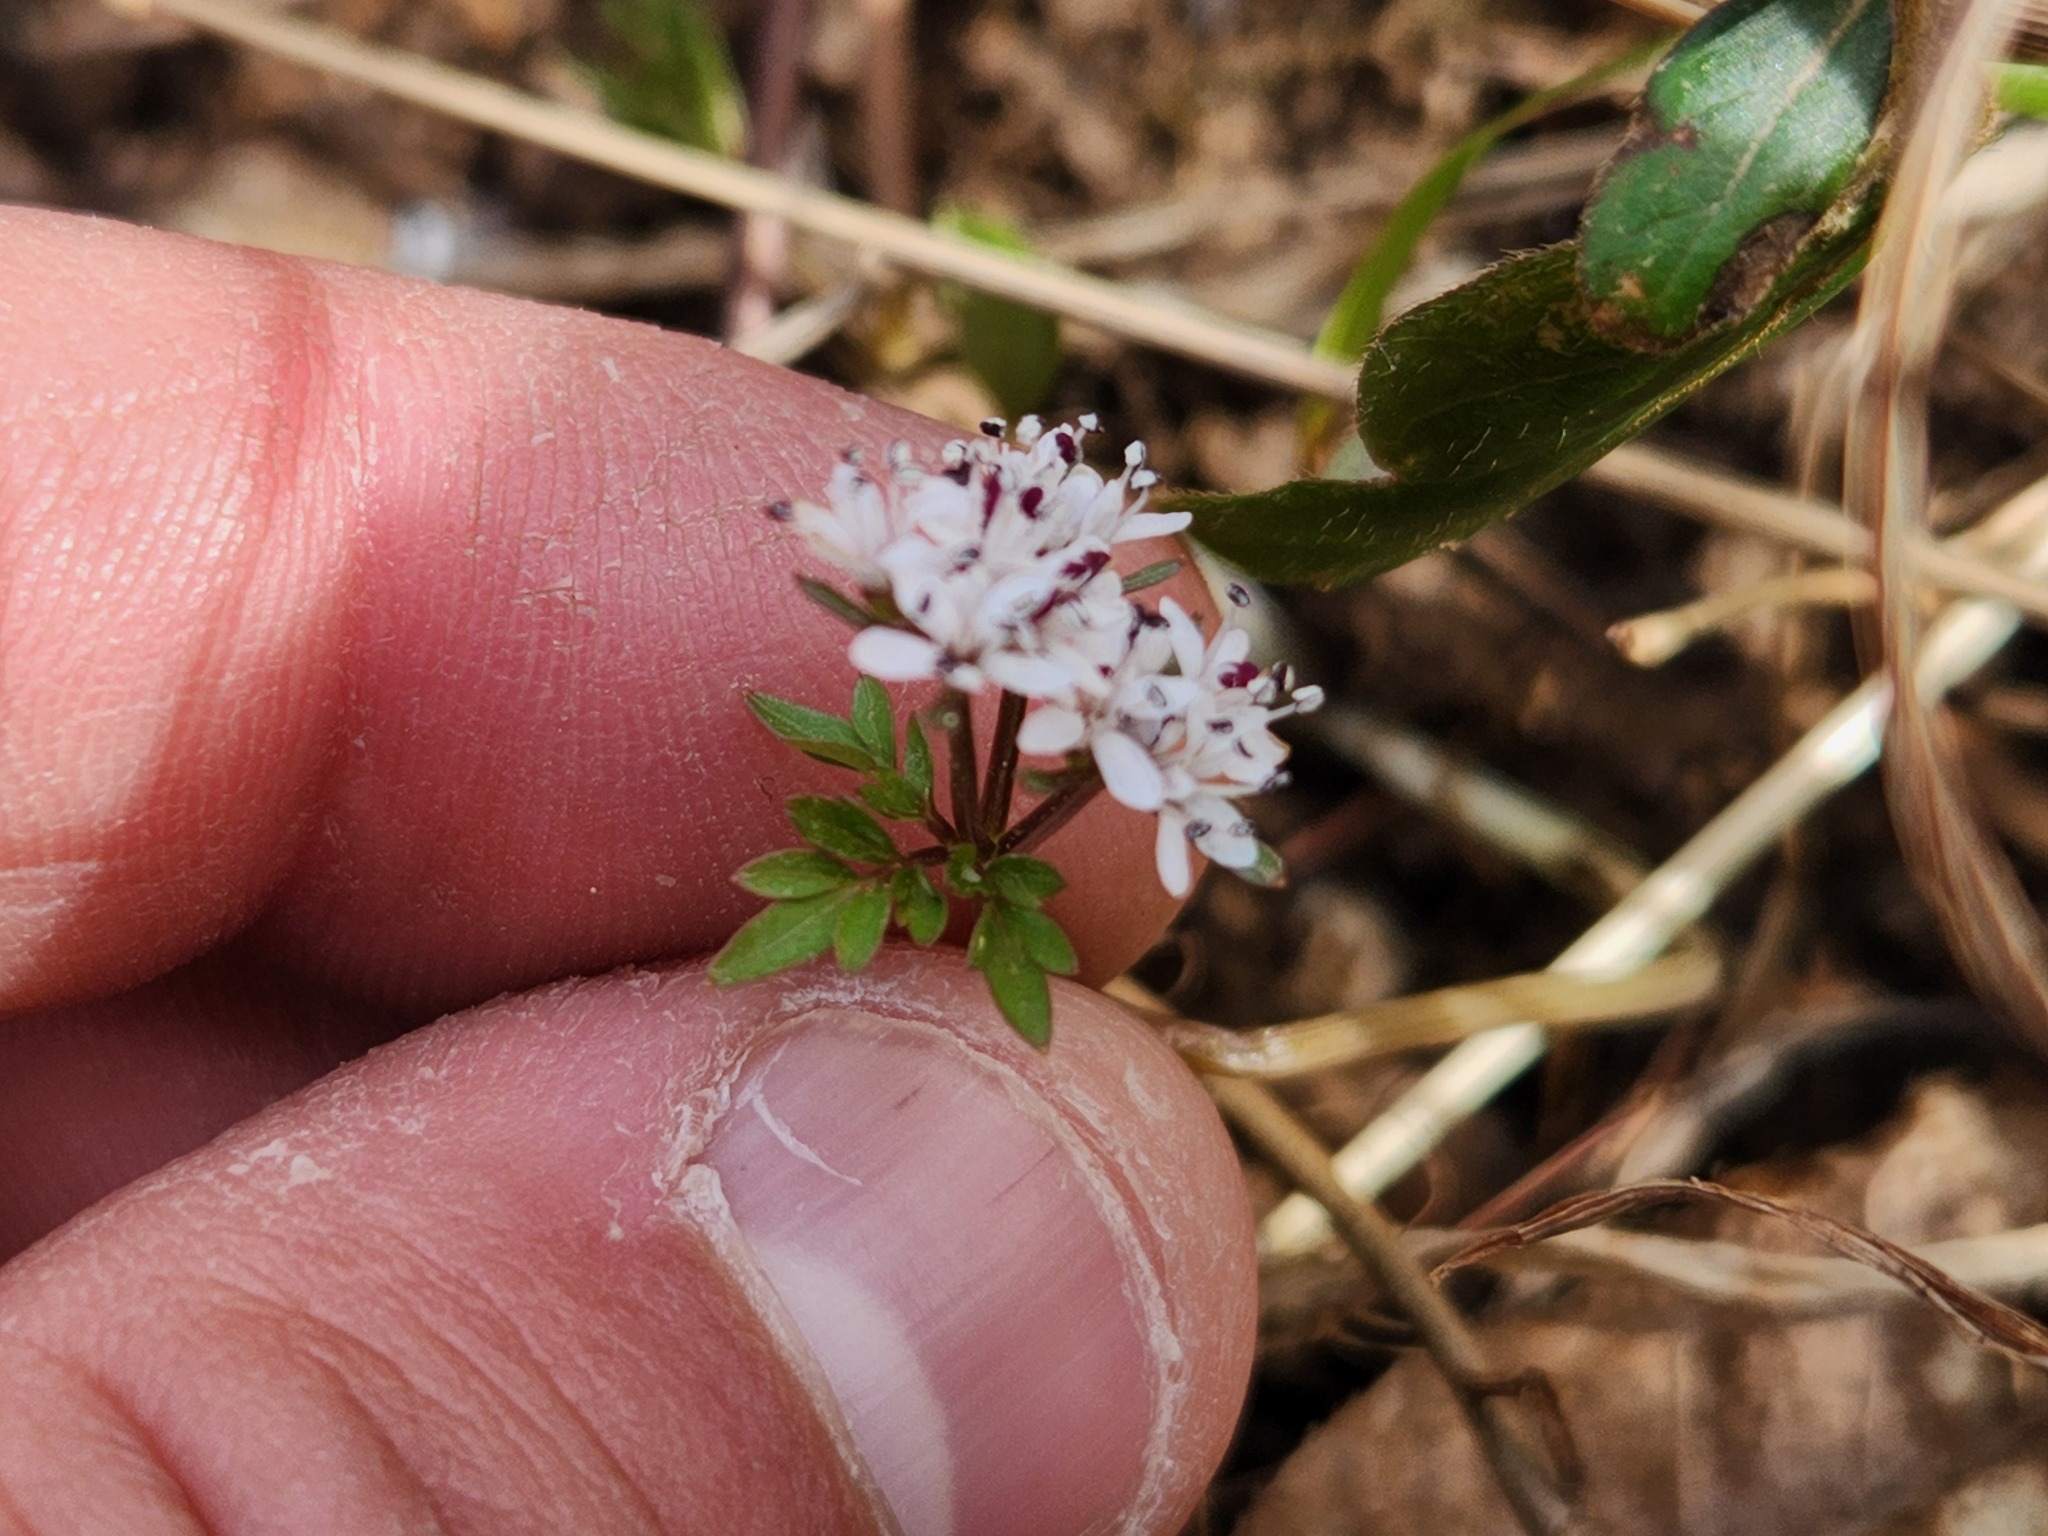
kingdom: Plantae
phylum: Tracheophyta
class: Magnoliopsida
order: Apiales
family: Apiaceae
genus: Erigenia
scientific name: Erigenia bulbosa
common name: Pepper-and-salt
